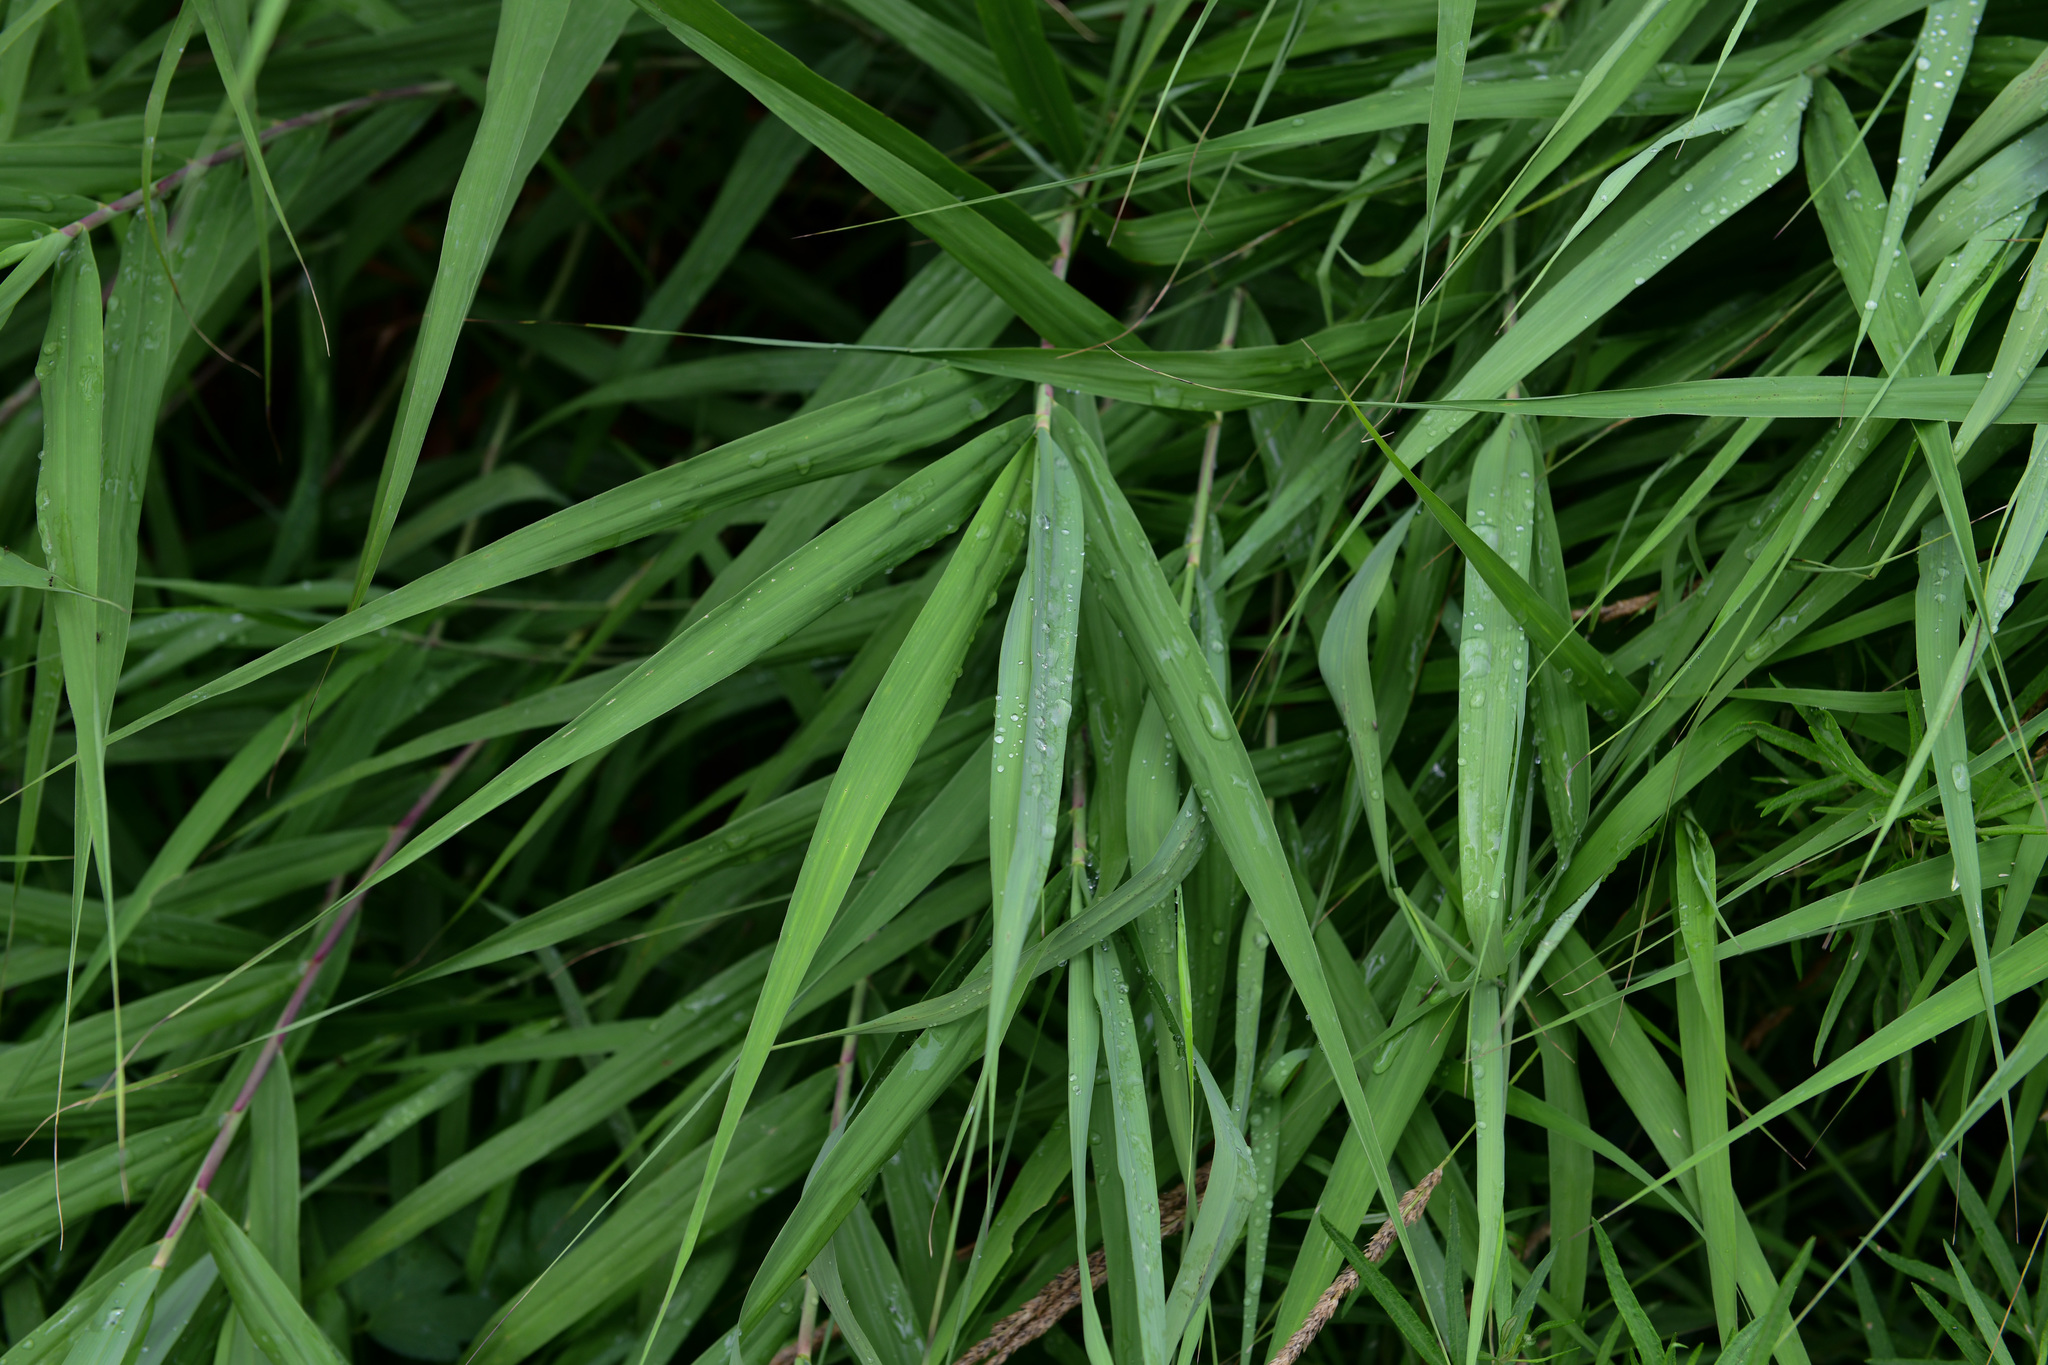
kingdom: Plantae
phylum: Tracheophyta
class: Liliopsida
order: Poales
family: Poaceae
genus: Phragmites
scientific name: Phragmites australis
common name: Common reed
